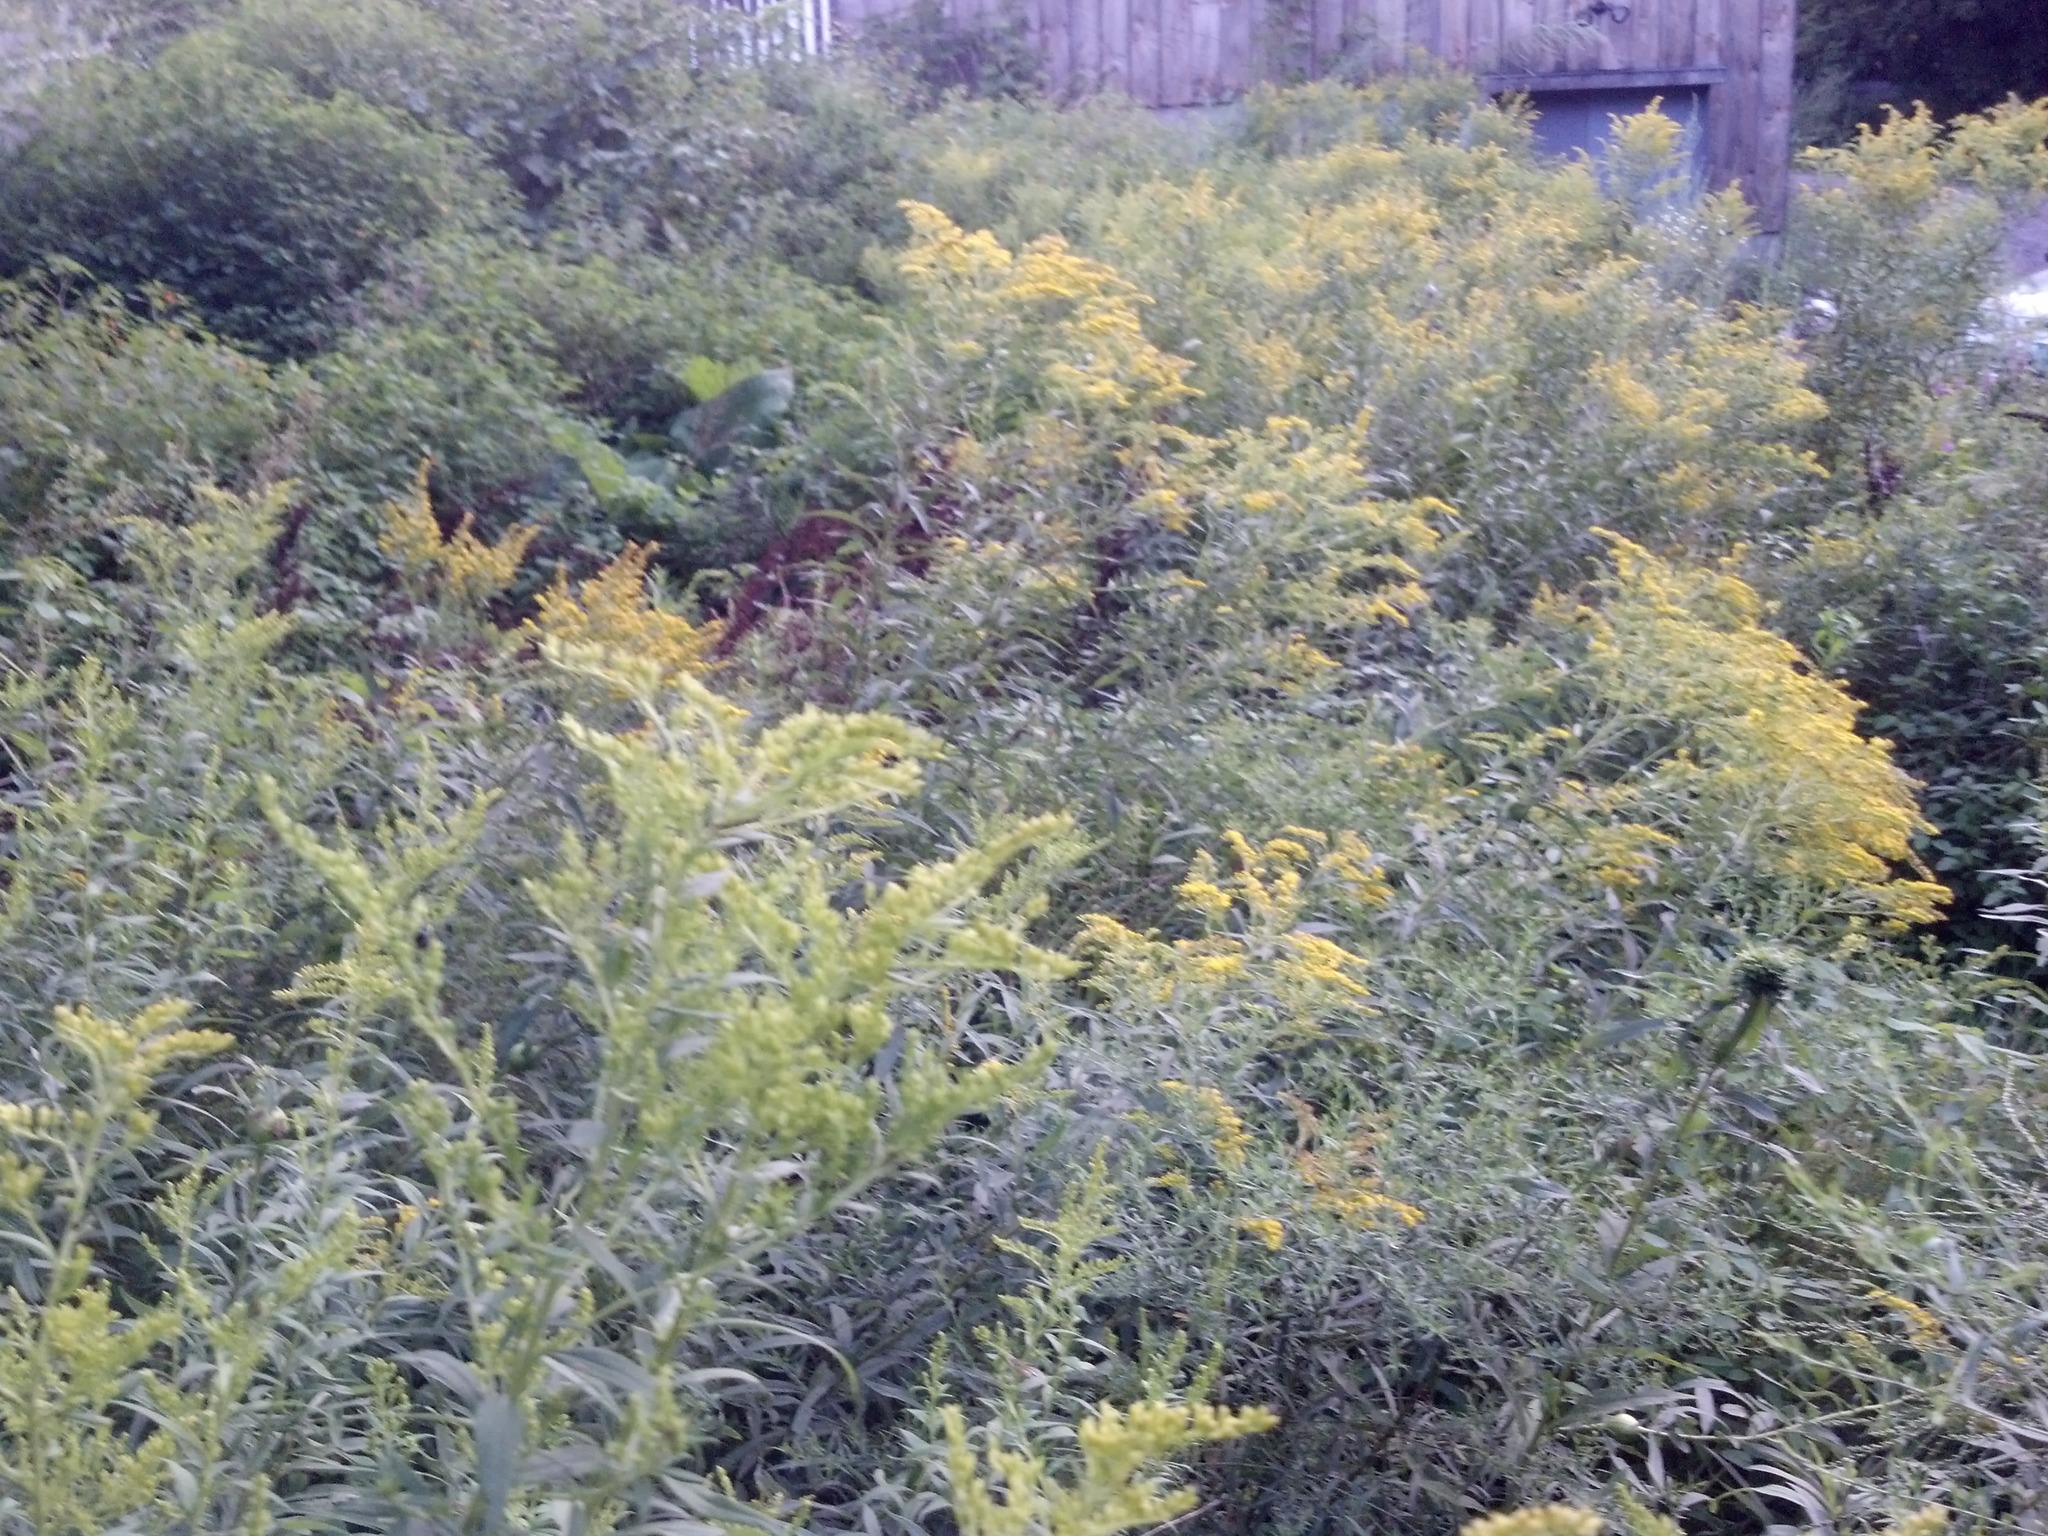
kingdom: Plantae
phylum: Tracheophyta
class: Magnoliopsida
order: Asterales
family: Asteraceae
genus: Solidago
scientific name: Solidago gigantea
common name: Giant goldenrod
